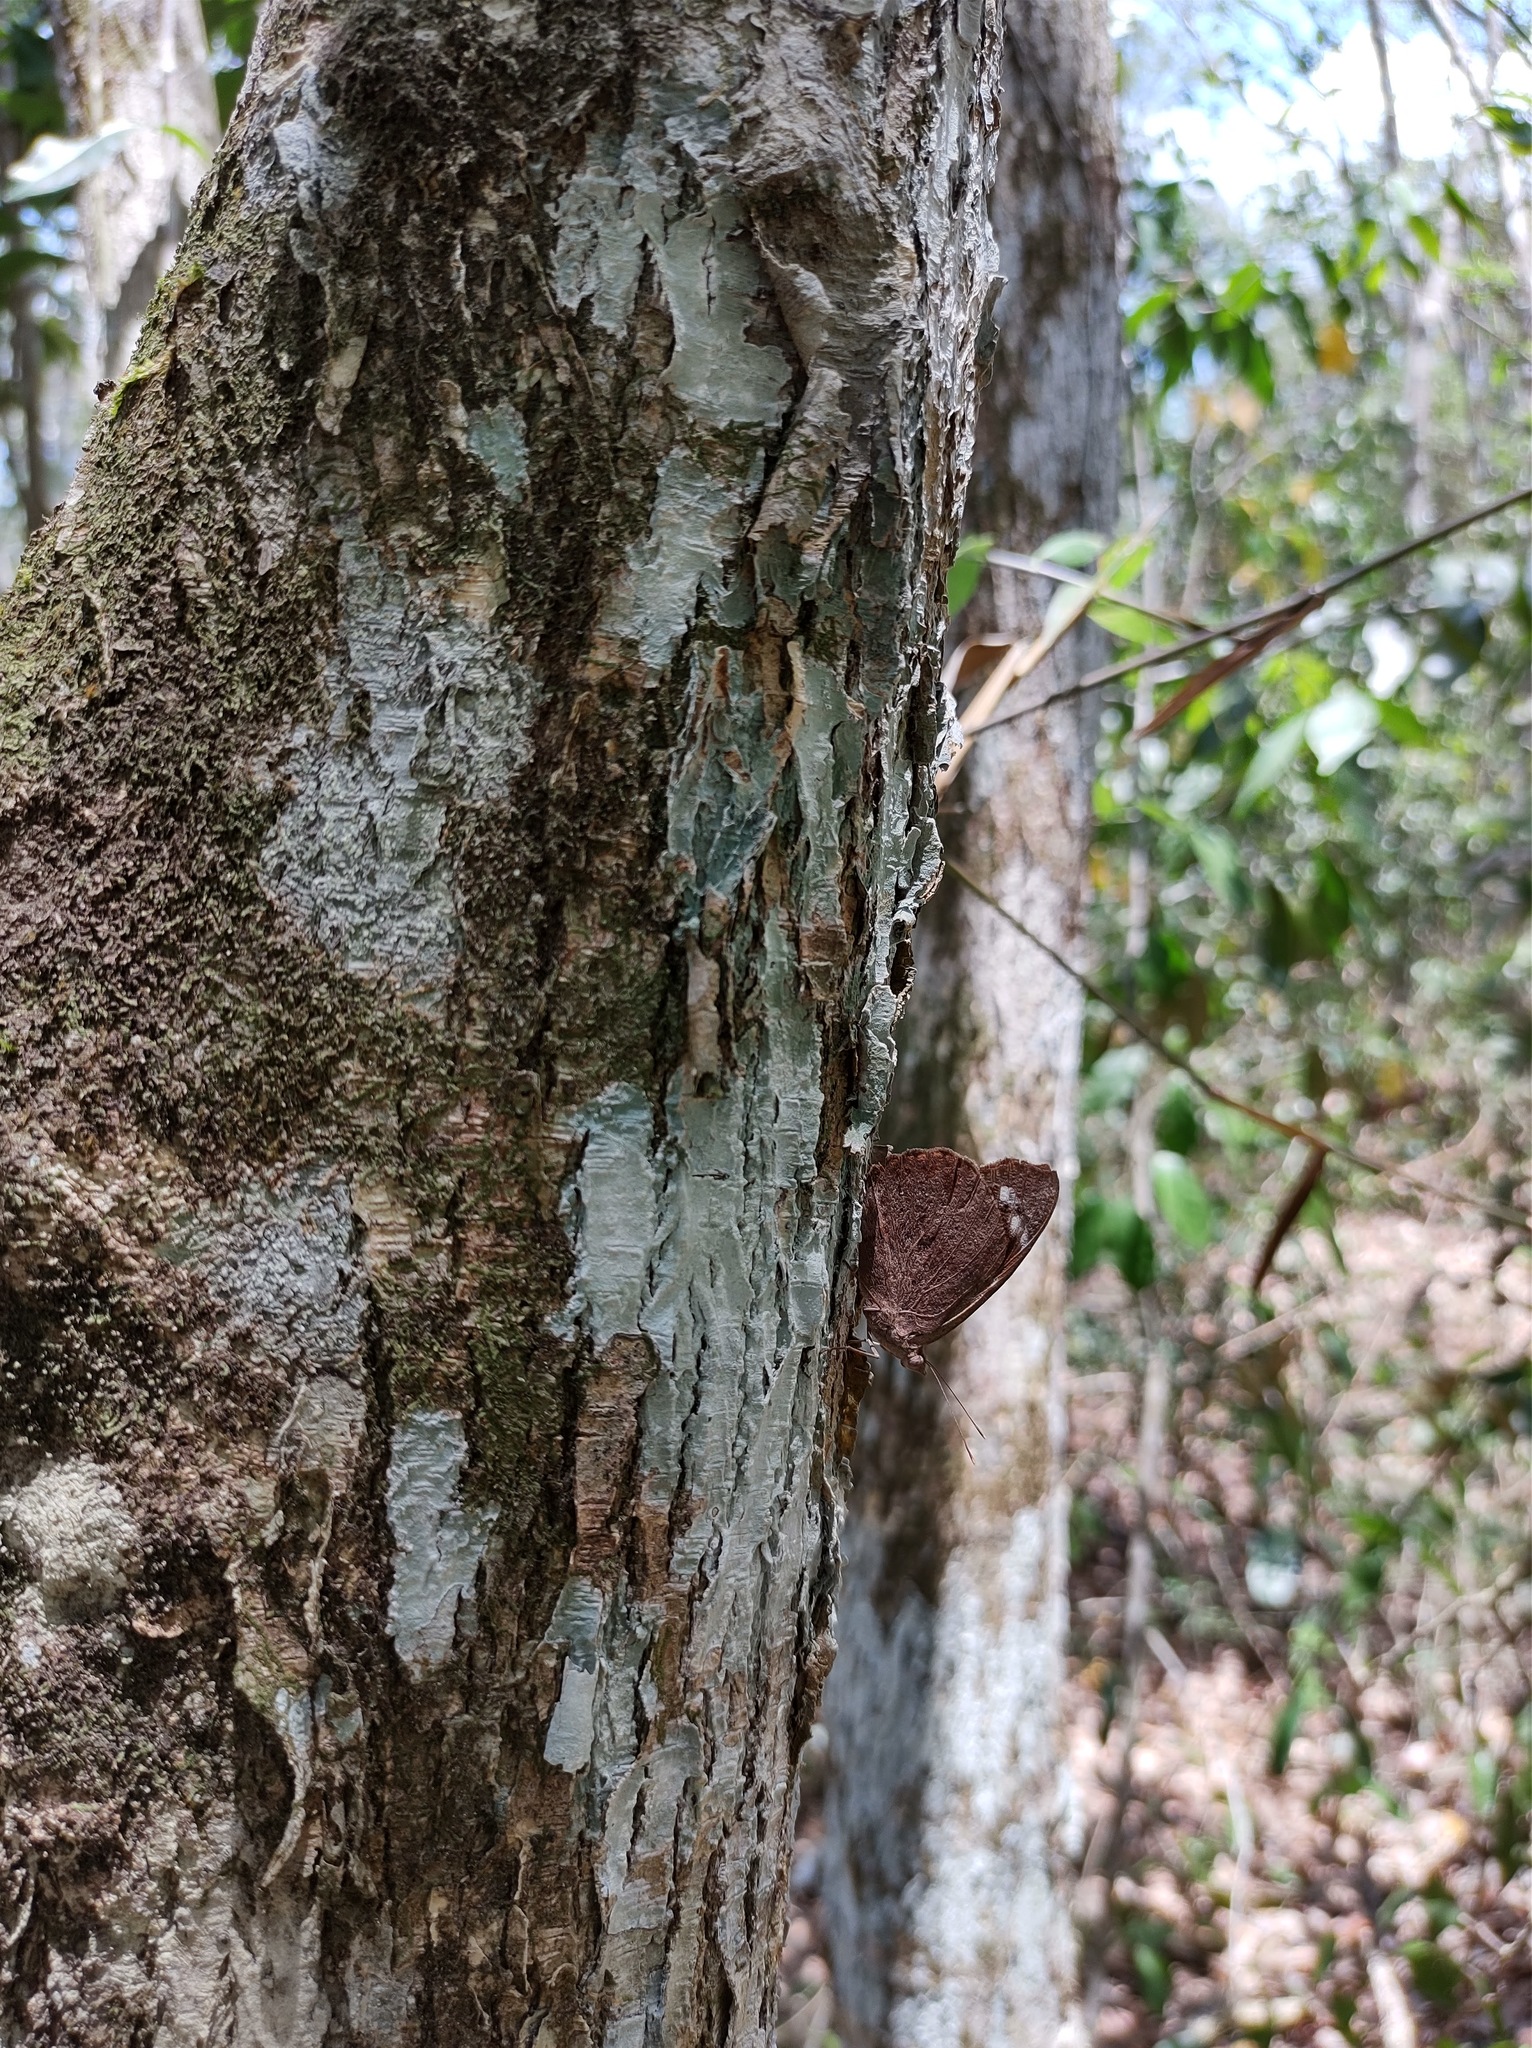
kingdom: Animalia
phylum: Arthropoda
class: Insecta
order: Lepidoptera
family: Nymphalidae
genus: Eunica
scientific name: Eunica tatila
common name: Florida purplewing
